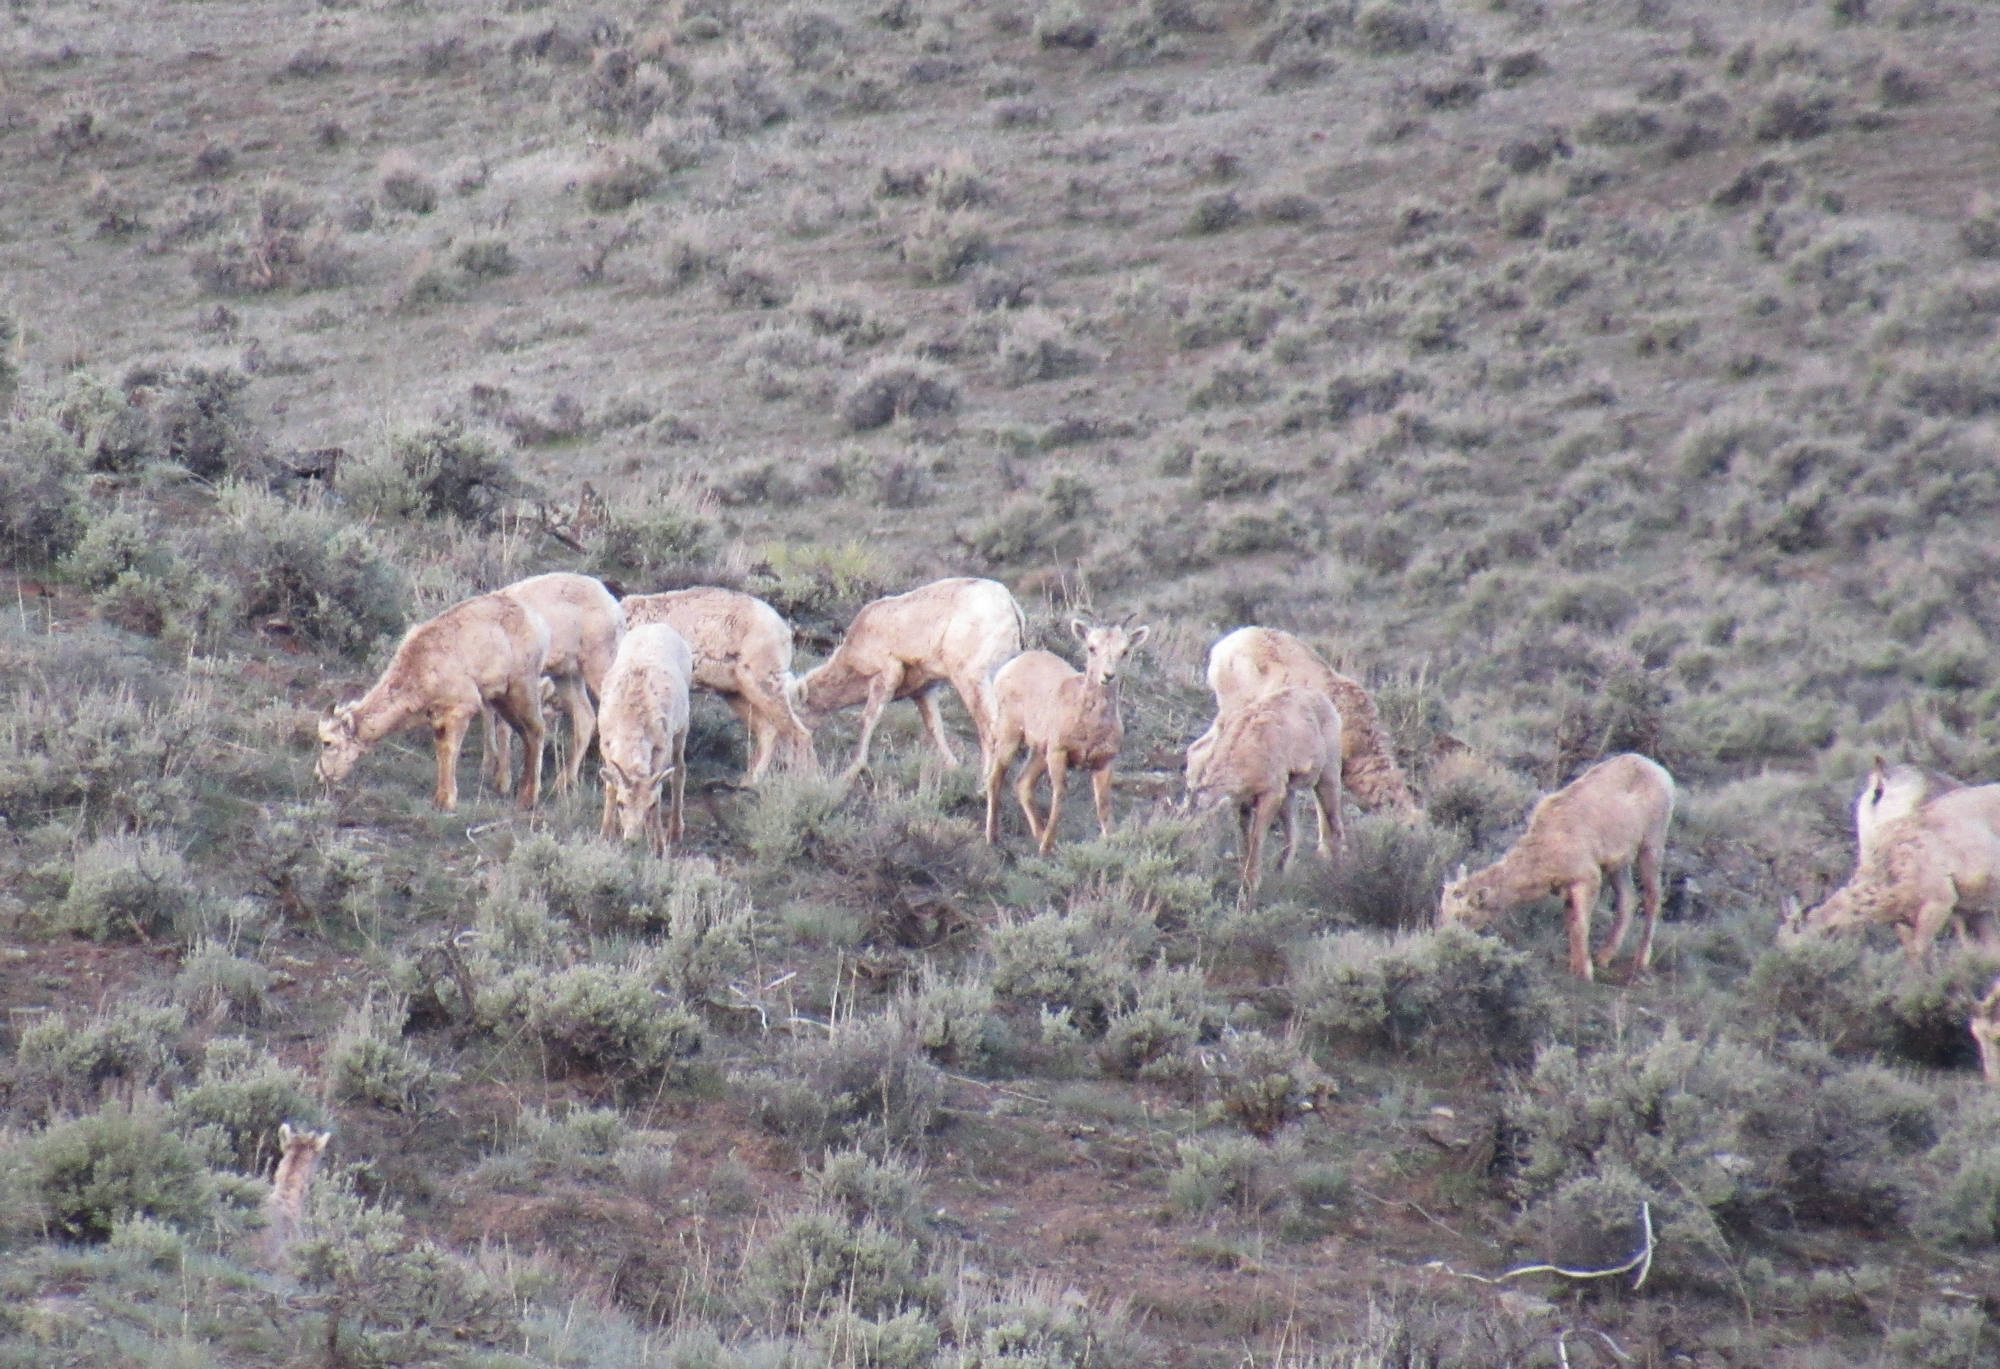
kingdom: Animalia
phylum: Chordata
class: Mammalia
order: Artiodactyla
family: Bovidae
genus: Ovis
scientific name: Ovis canadensis
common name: Bighorn sheep
